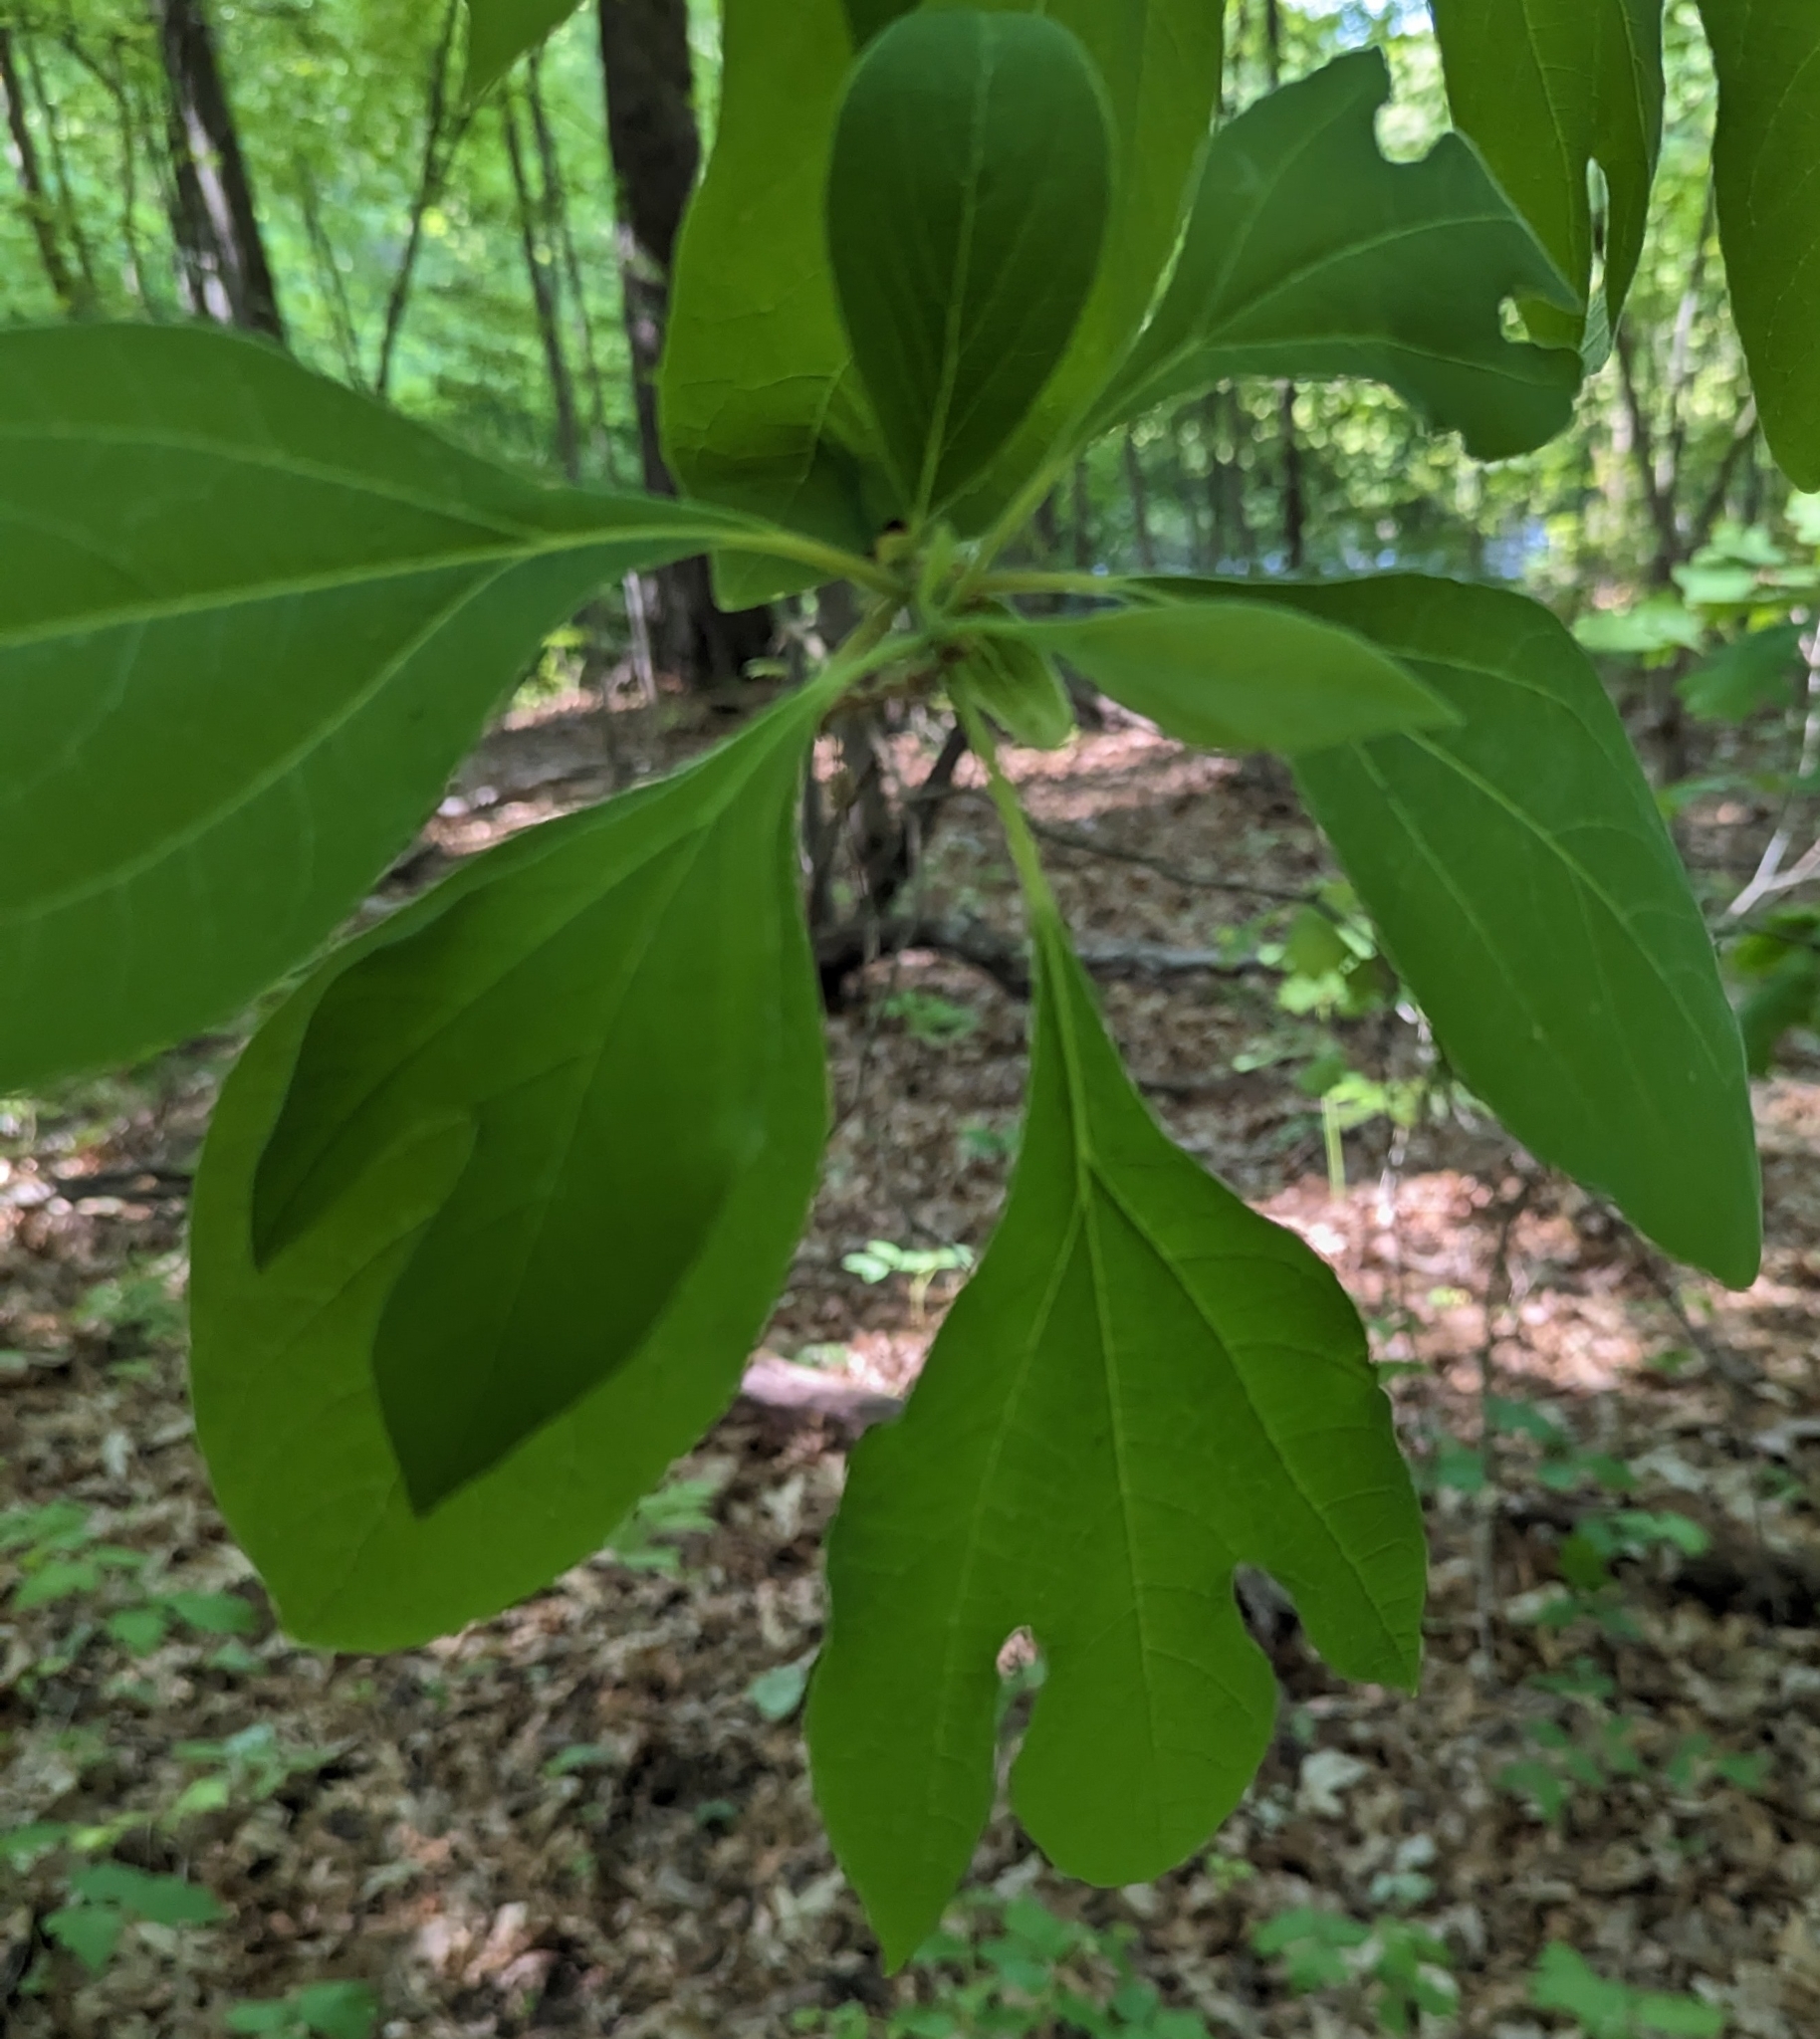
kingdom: Plantae
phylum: Tracheophyta
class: Magnoliopsida
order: Laurales
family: Lauraceae
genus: Sassafras
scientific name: Sassafras albidum
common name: Sassafras
